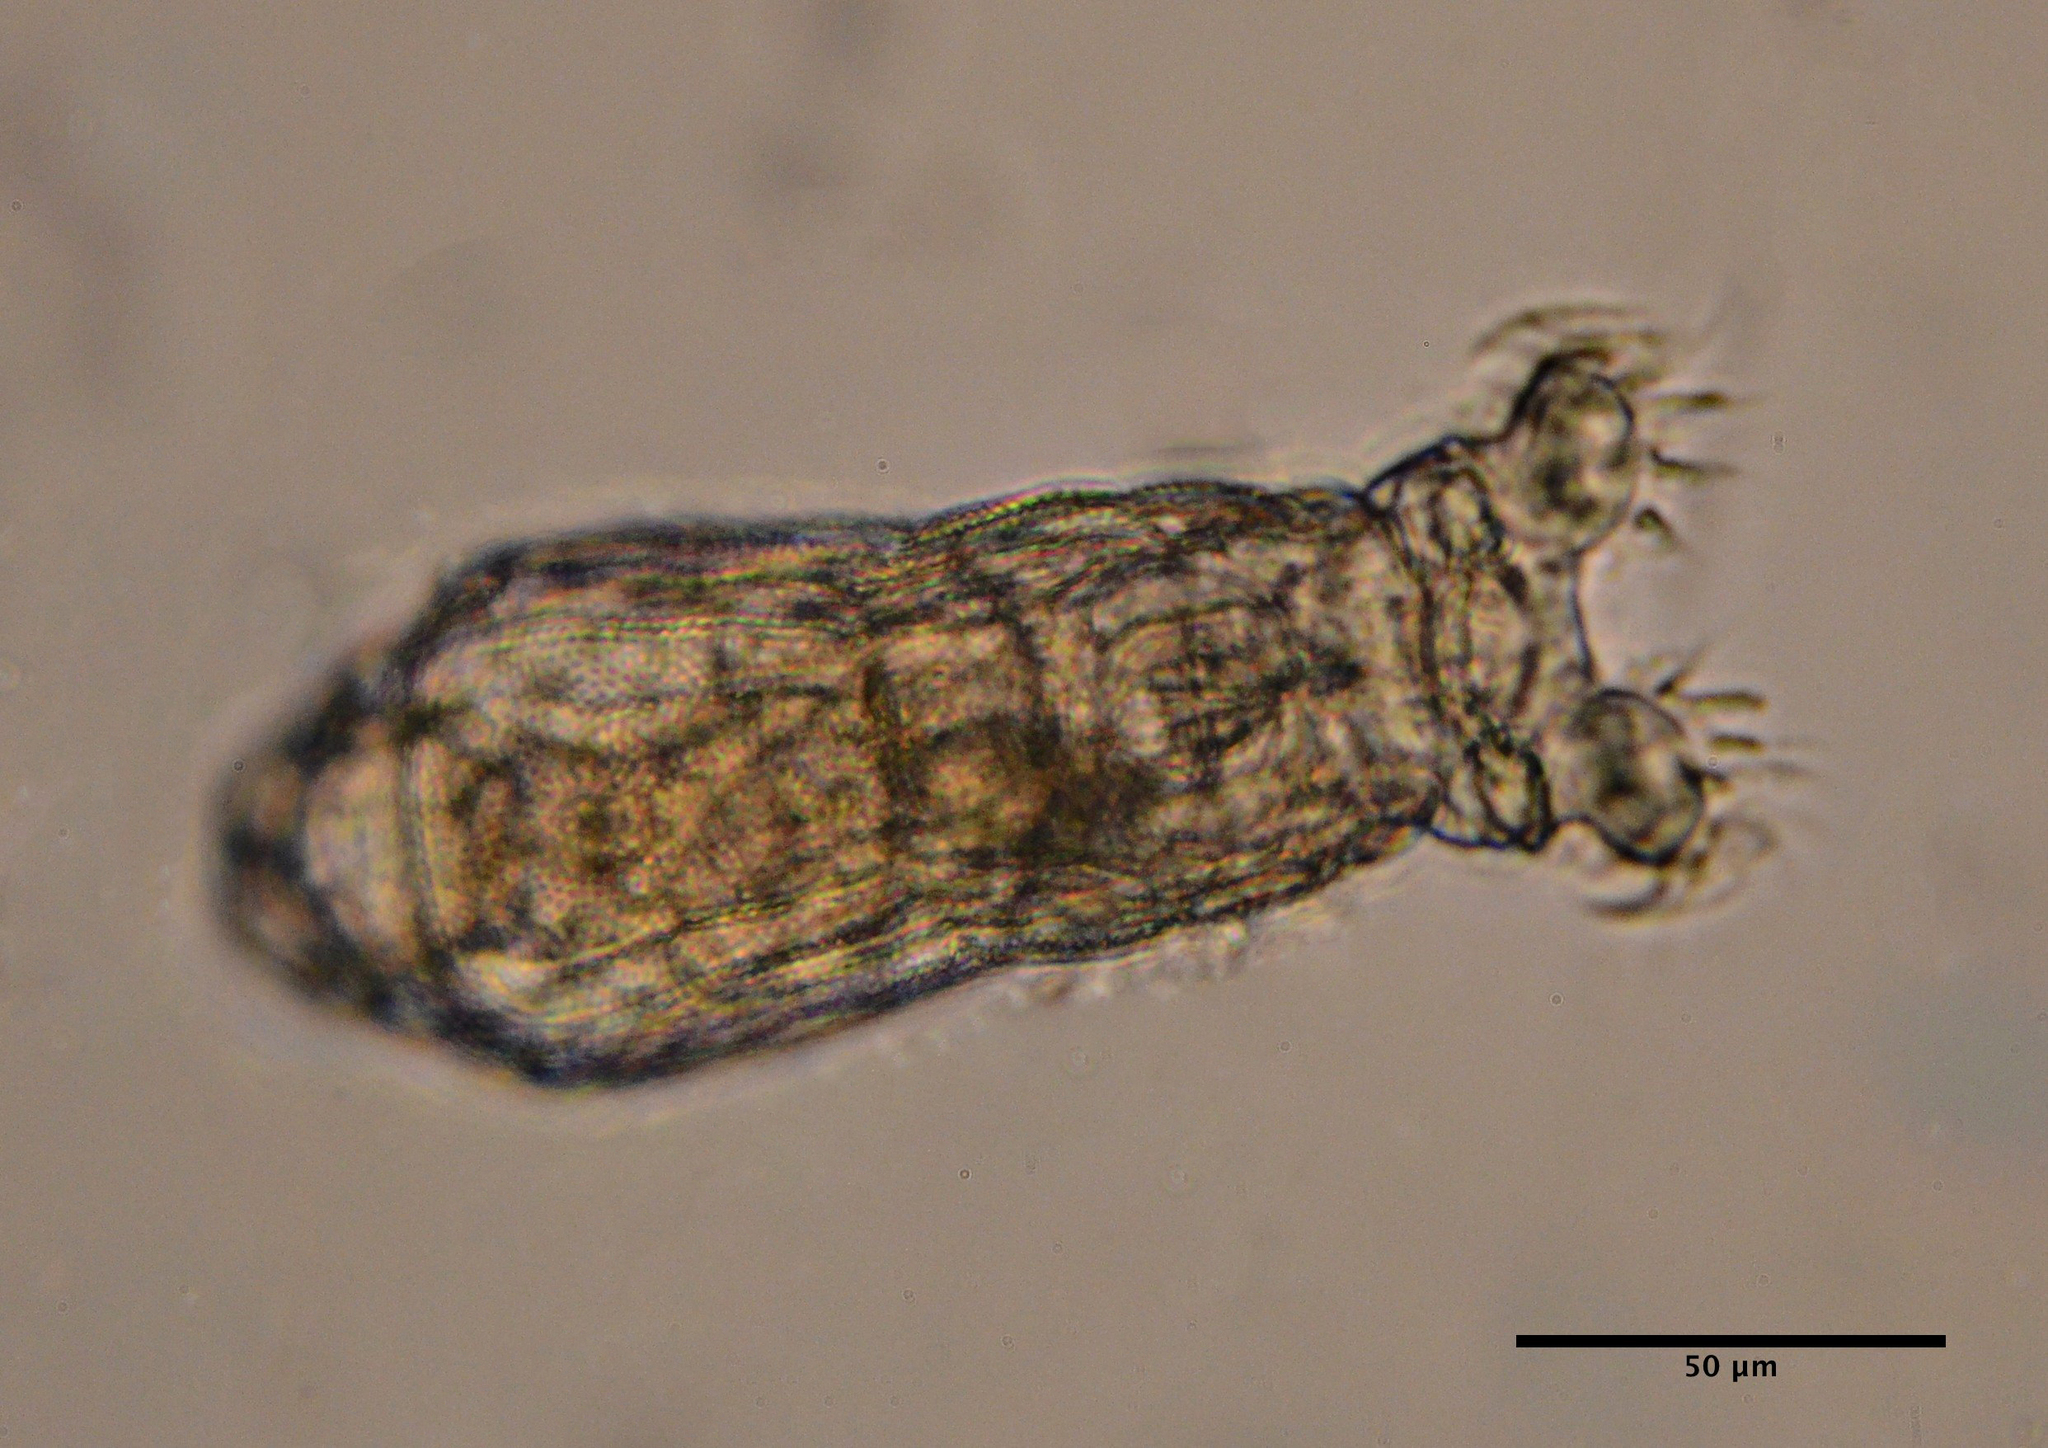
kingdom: Animalia
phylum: Rotifera
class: Eurotatoria
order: Bdelloidea
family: Philodinidae
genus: Philodina
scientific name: Philodina rugosa
